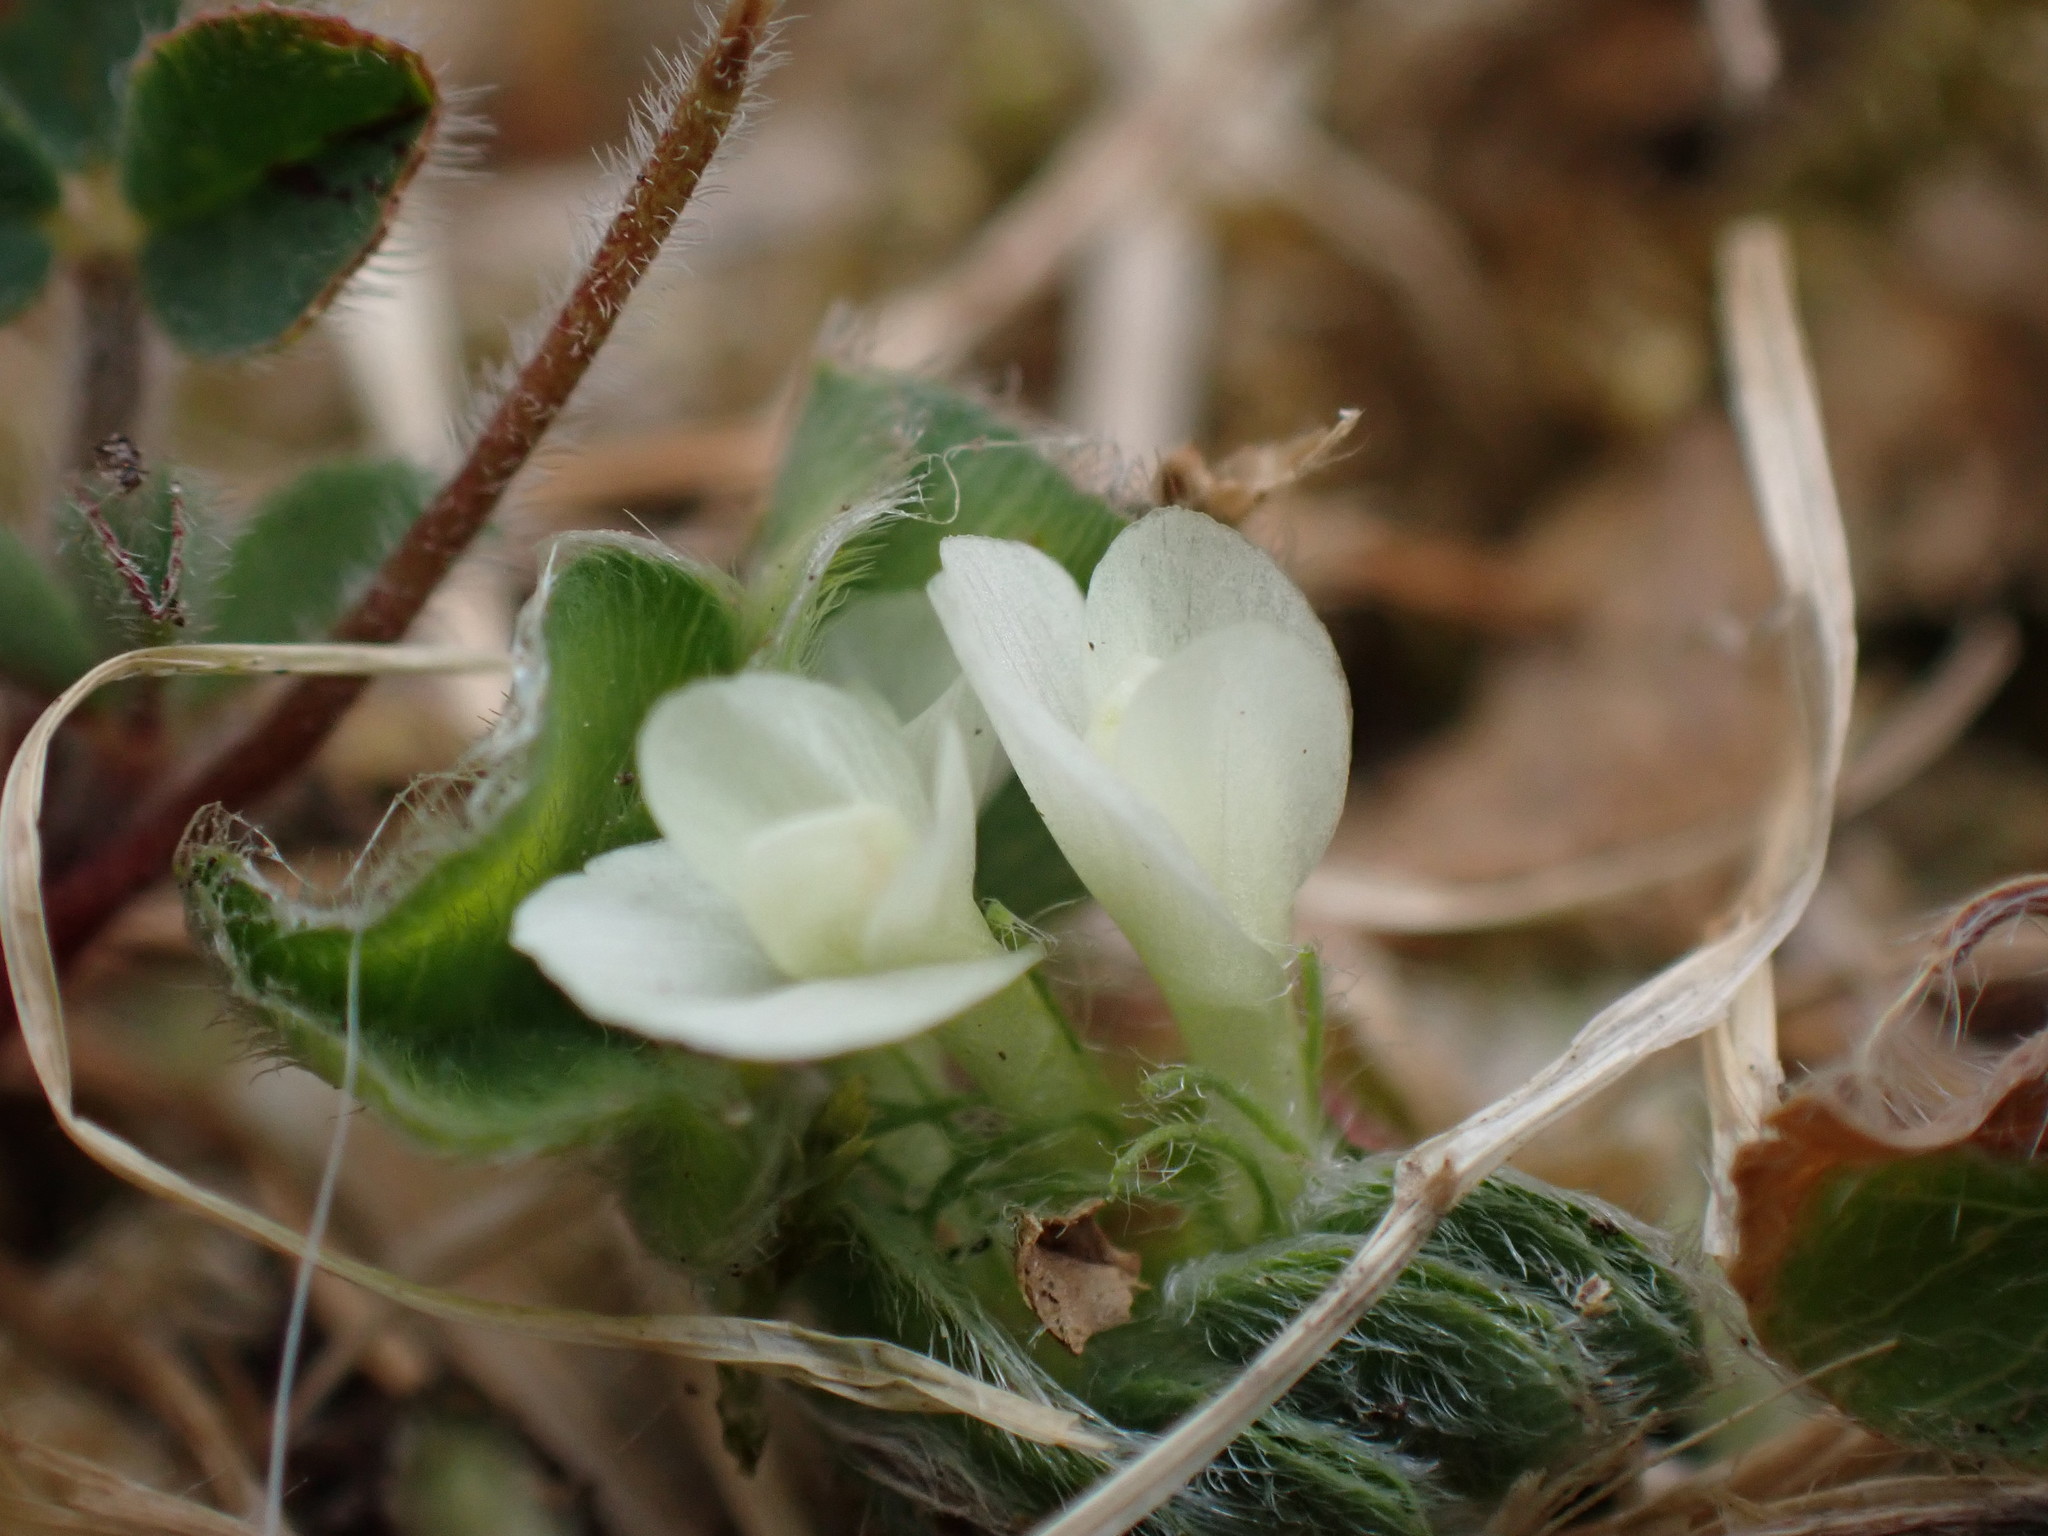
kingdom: Plantae
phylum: Tracheophyta
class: Magnoliopsida
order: Fabales
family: Fabaceae
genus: Trifolium
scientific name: Trifolium subterraneum
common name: Subterranean clover
